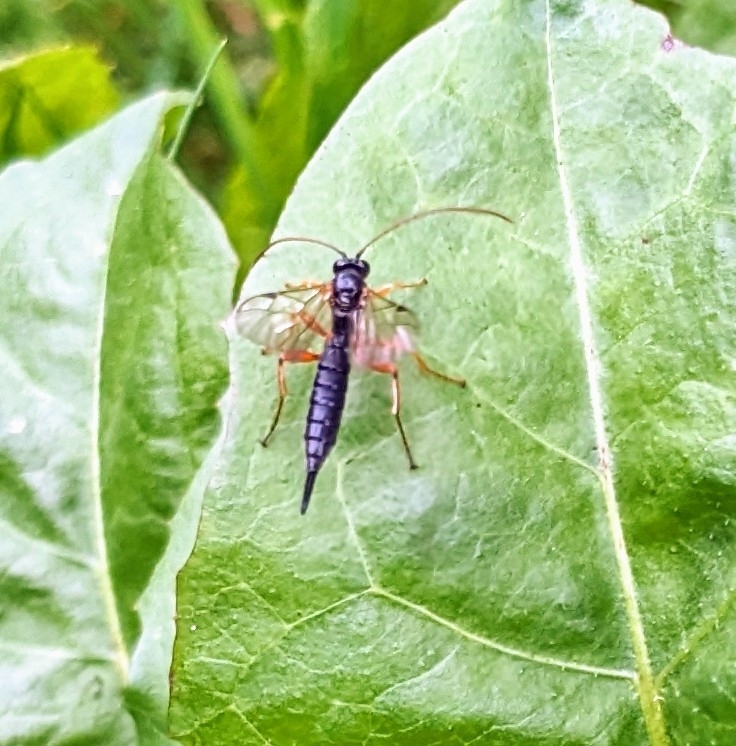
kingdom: Animalia
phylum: Arthropoda
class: Insecta
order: Hymenoptera
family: Ichneumonidae
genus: Apechthis
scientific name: Apechthis compunctor
